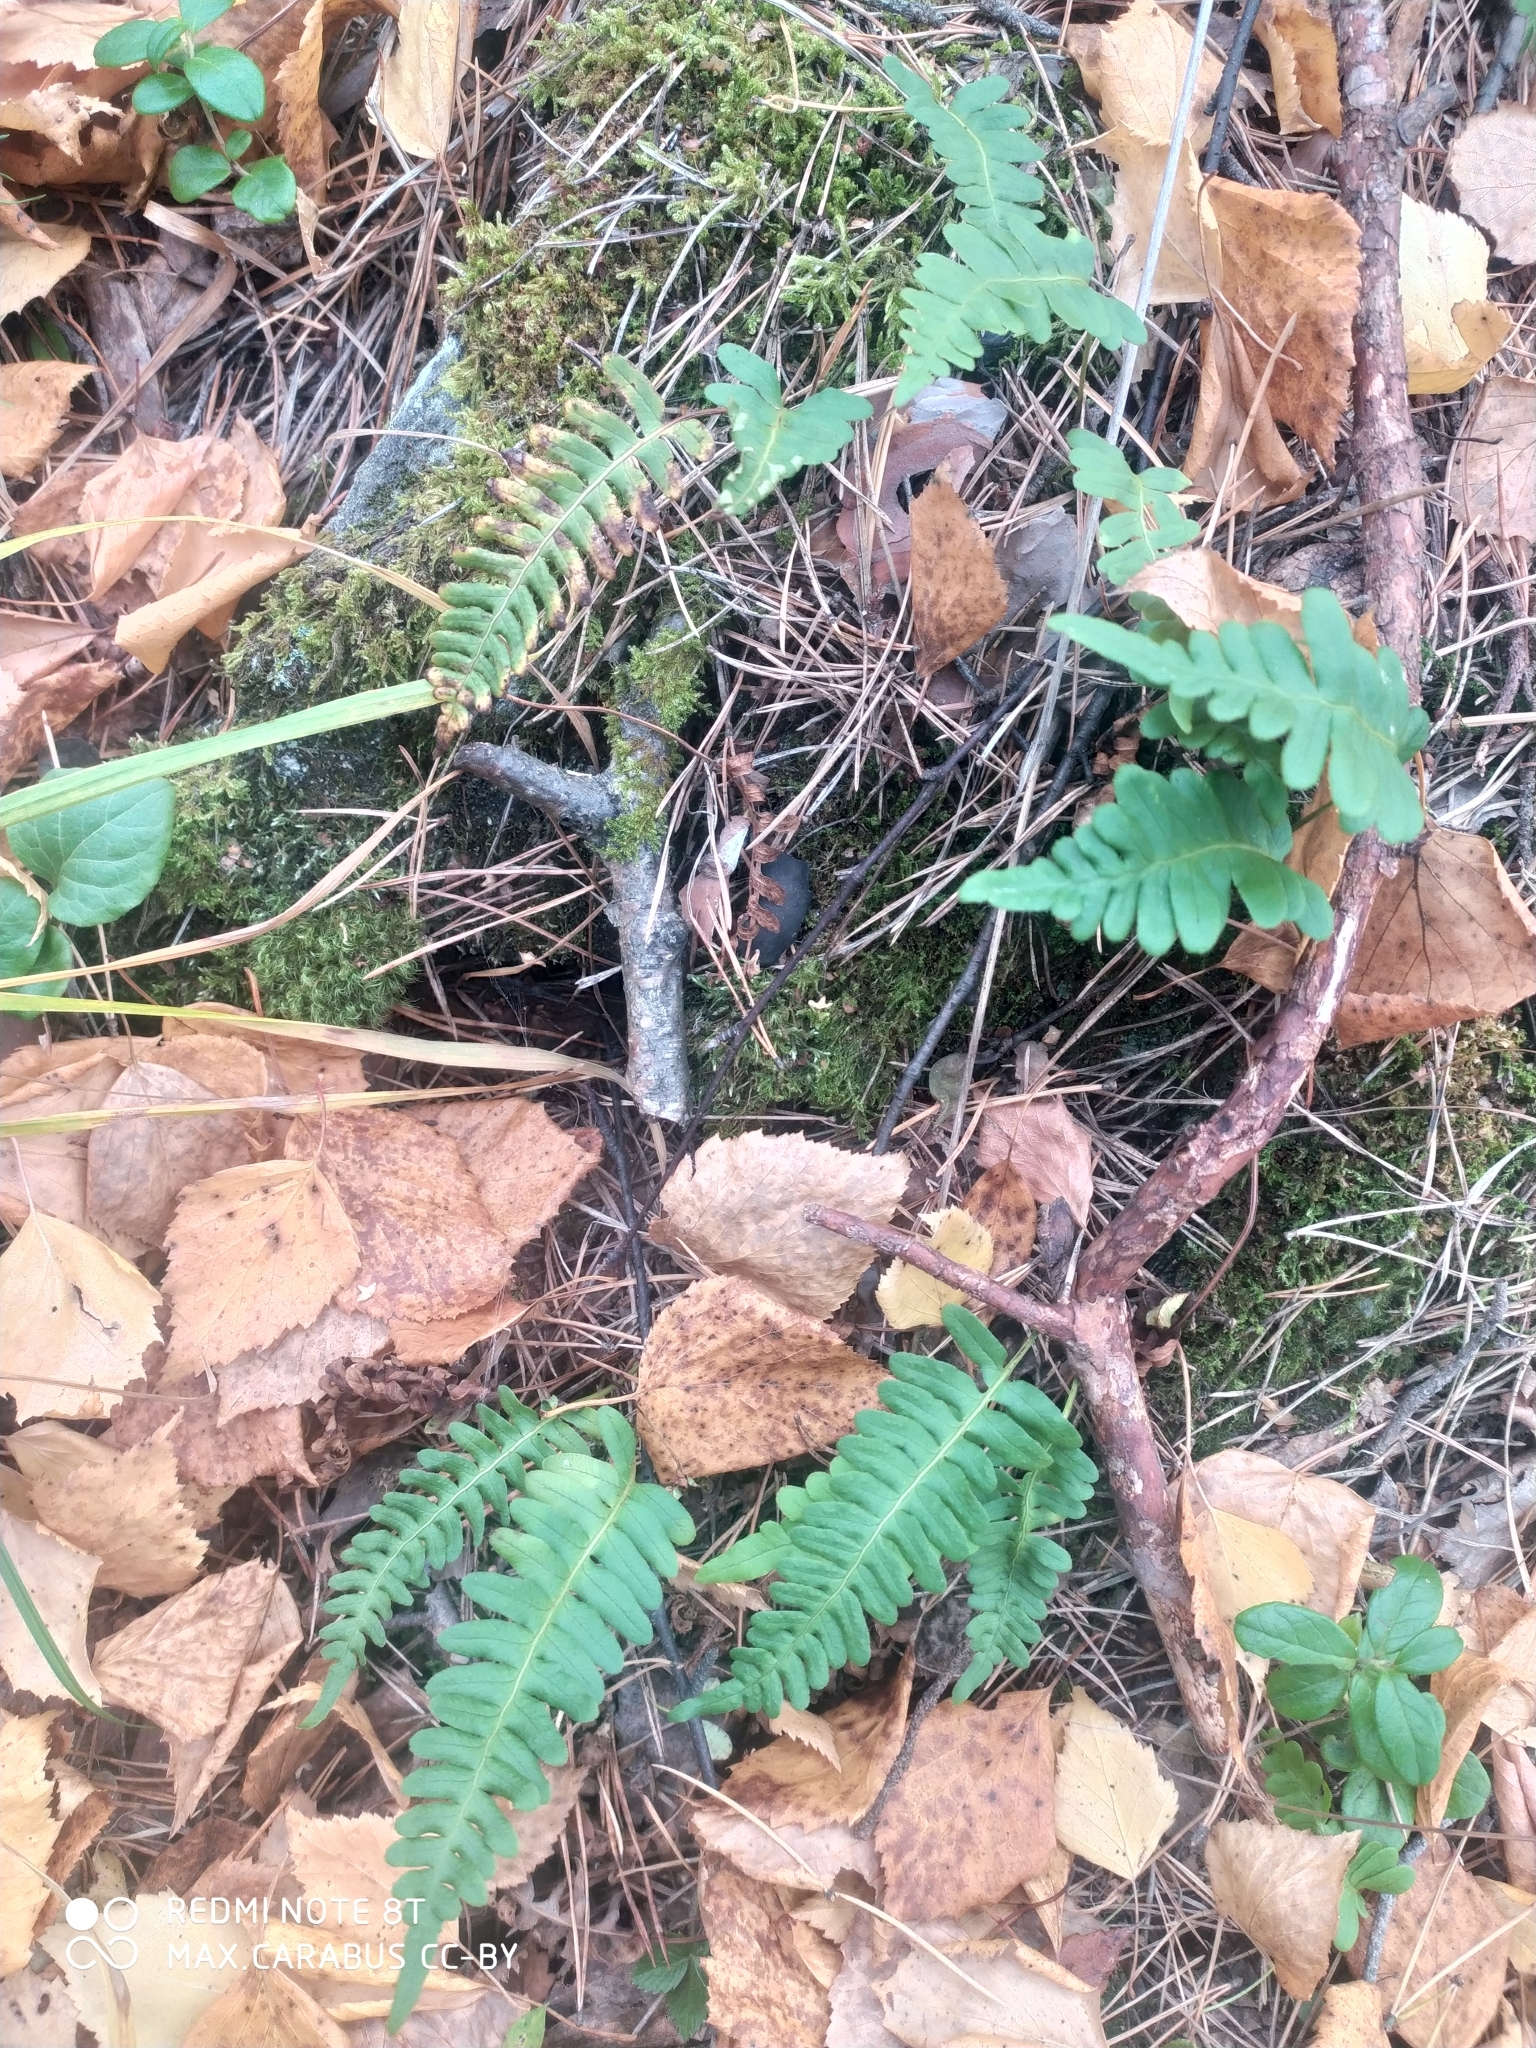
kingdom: Plantae
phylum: Tracheophyta
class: Polypodiopsida
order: Polypodiales
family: Polypodiaceae
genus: Polypodium
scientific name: Polypodium vulgare
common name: Common polypody
